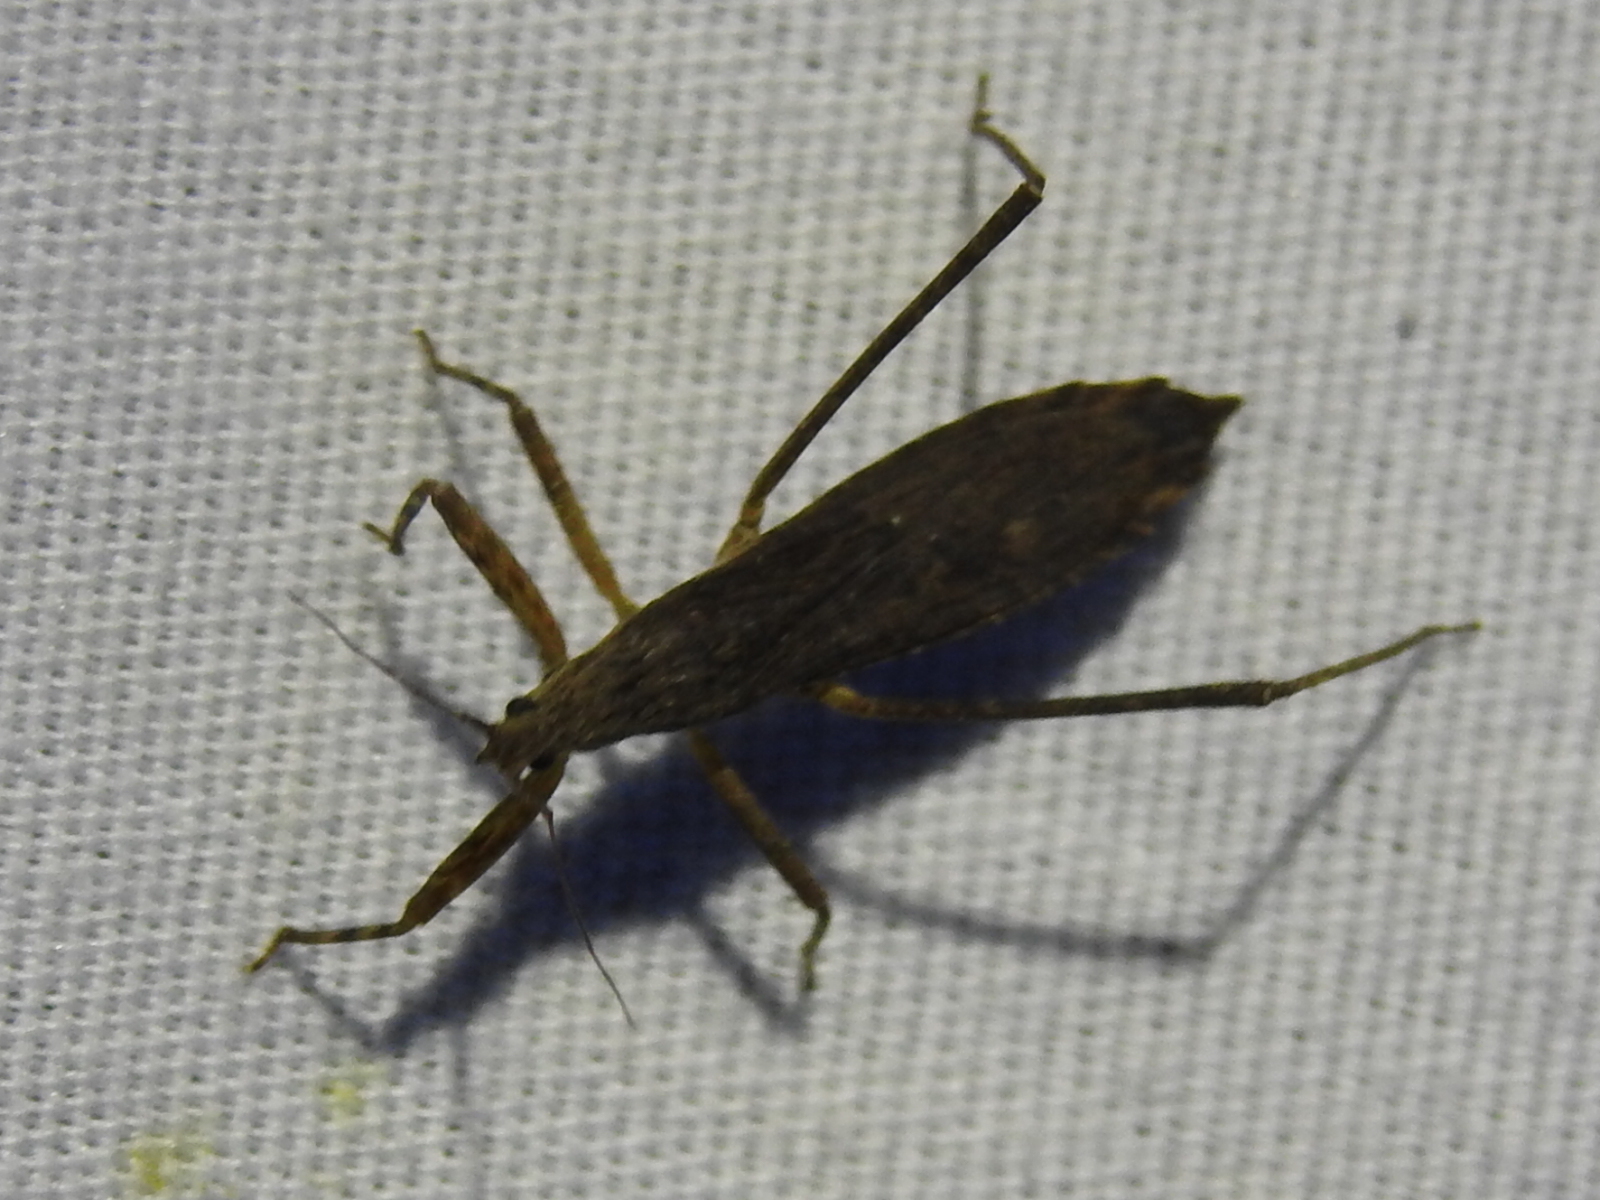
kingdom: Animalia
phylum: Arthropoda
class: Insecta
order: Hemiptera
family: Reduviidae
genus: Pygolampis
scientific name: Pygolampis pectoralis
